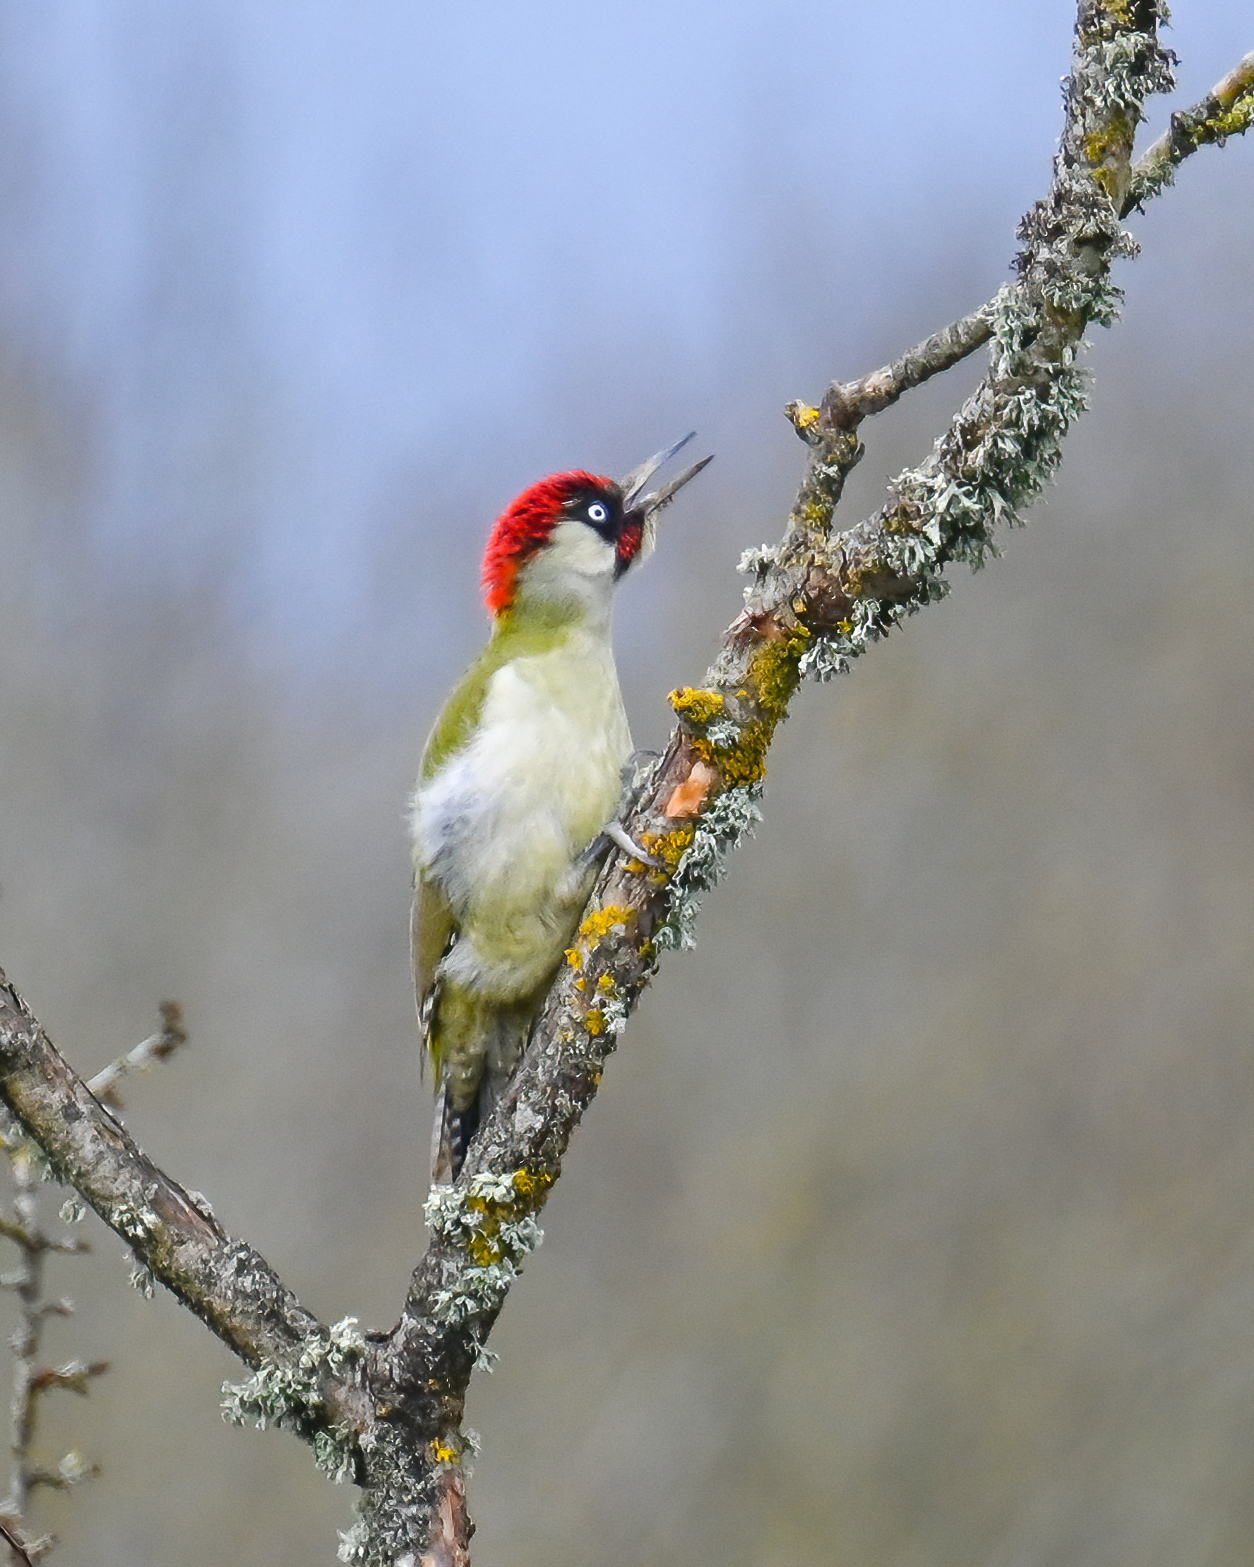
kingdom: Animalia
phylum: Chordata
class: Aves
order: Piciformes
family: Picidae
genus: Picus
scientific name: Picus viridis
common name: European green woodpecker
